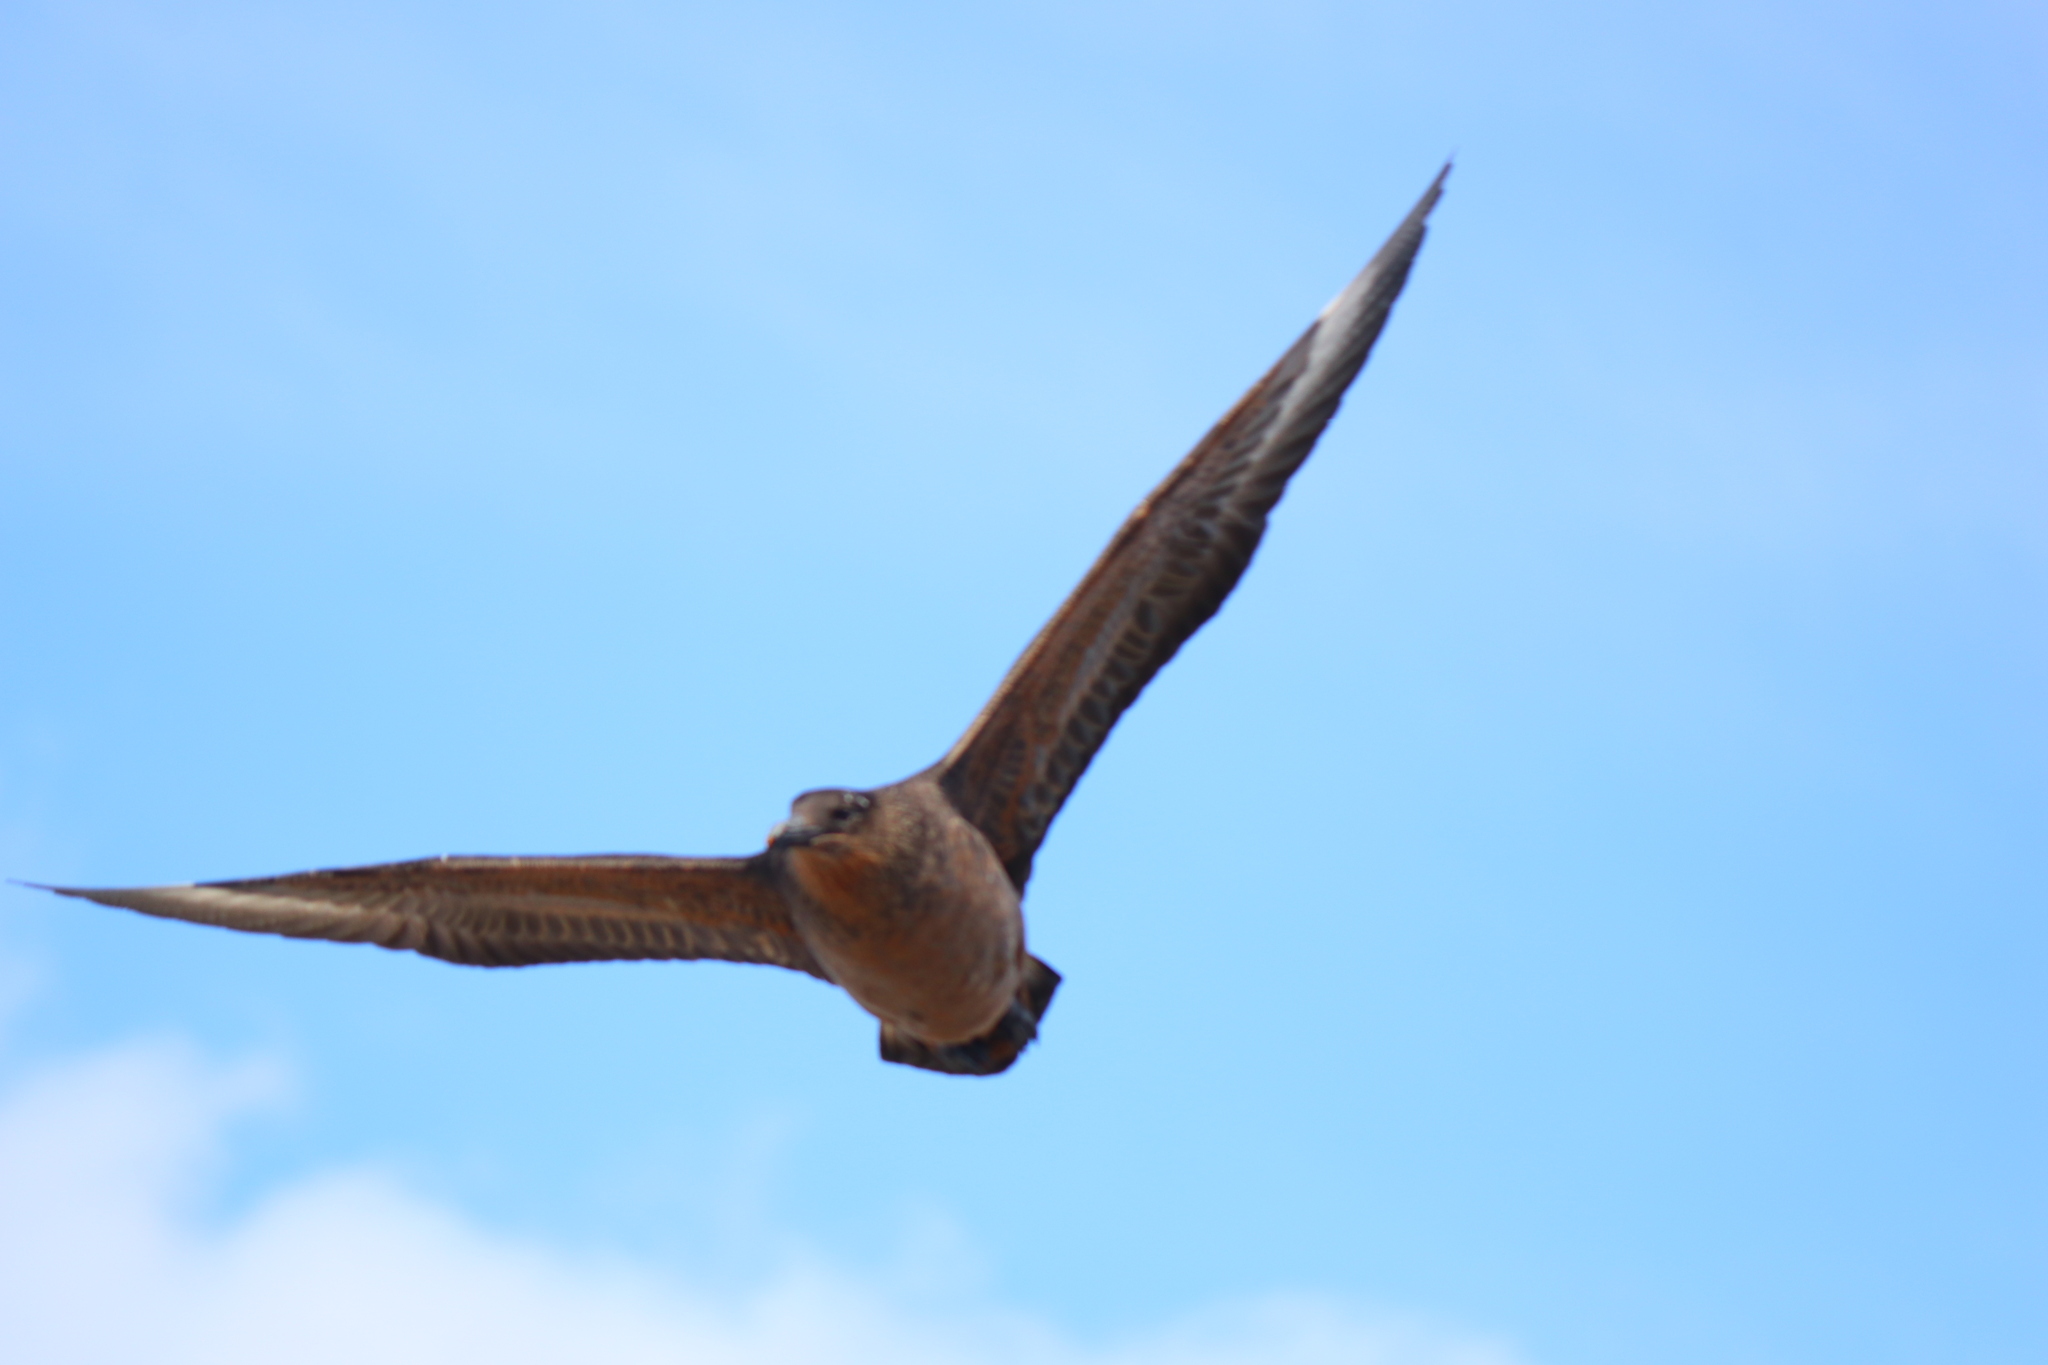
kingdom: Animalia
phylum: Chordata
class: Aves
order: Charadriiformes
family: Stercorariidae
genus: Stercorarius
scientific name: Stercorarius chilensis
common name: Chilean skua
